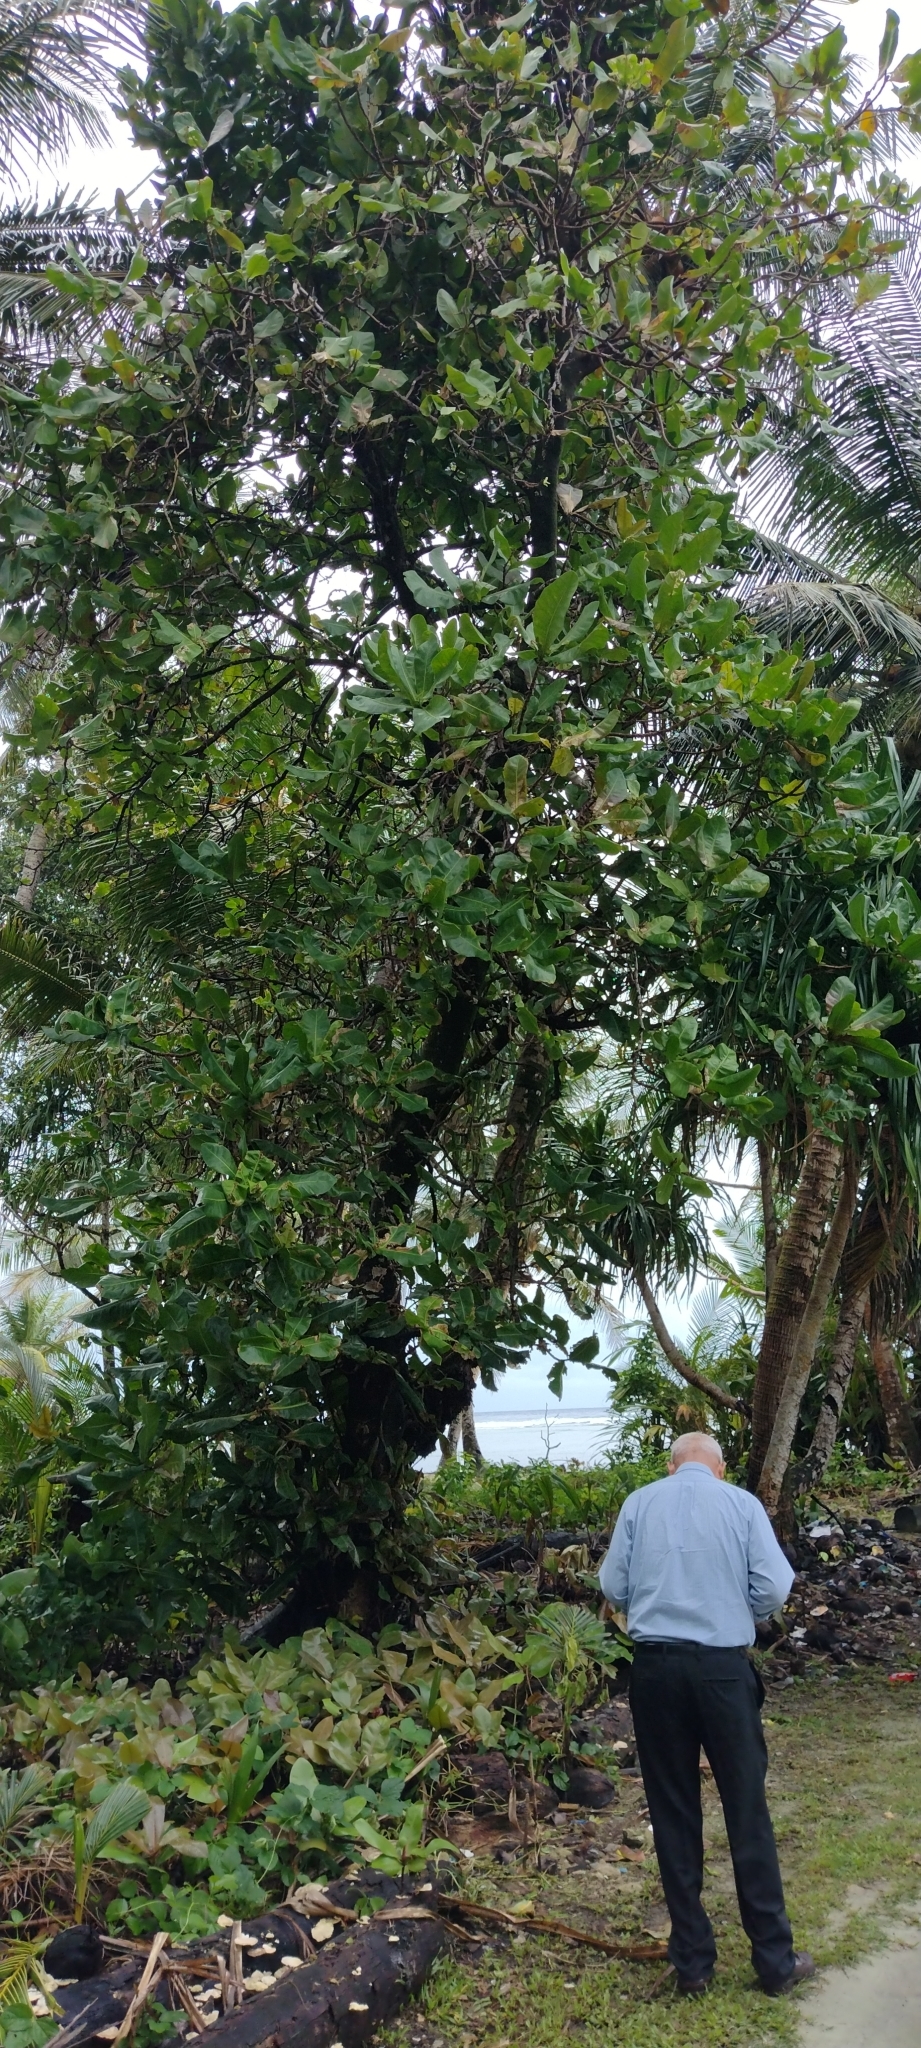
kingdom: Plantae
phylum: Tracheophyta
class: Magnoliopsida
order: Ericales
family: Lecythidaceae
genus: Barringtonia
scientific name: Barringtonia asiatica
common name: Mango-pine
